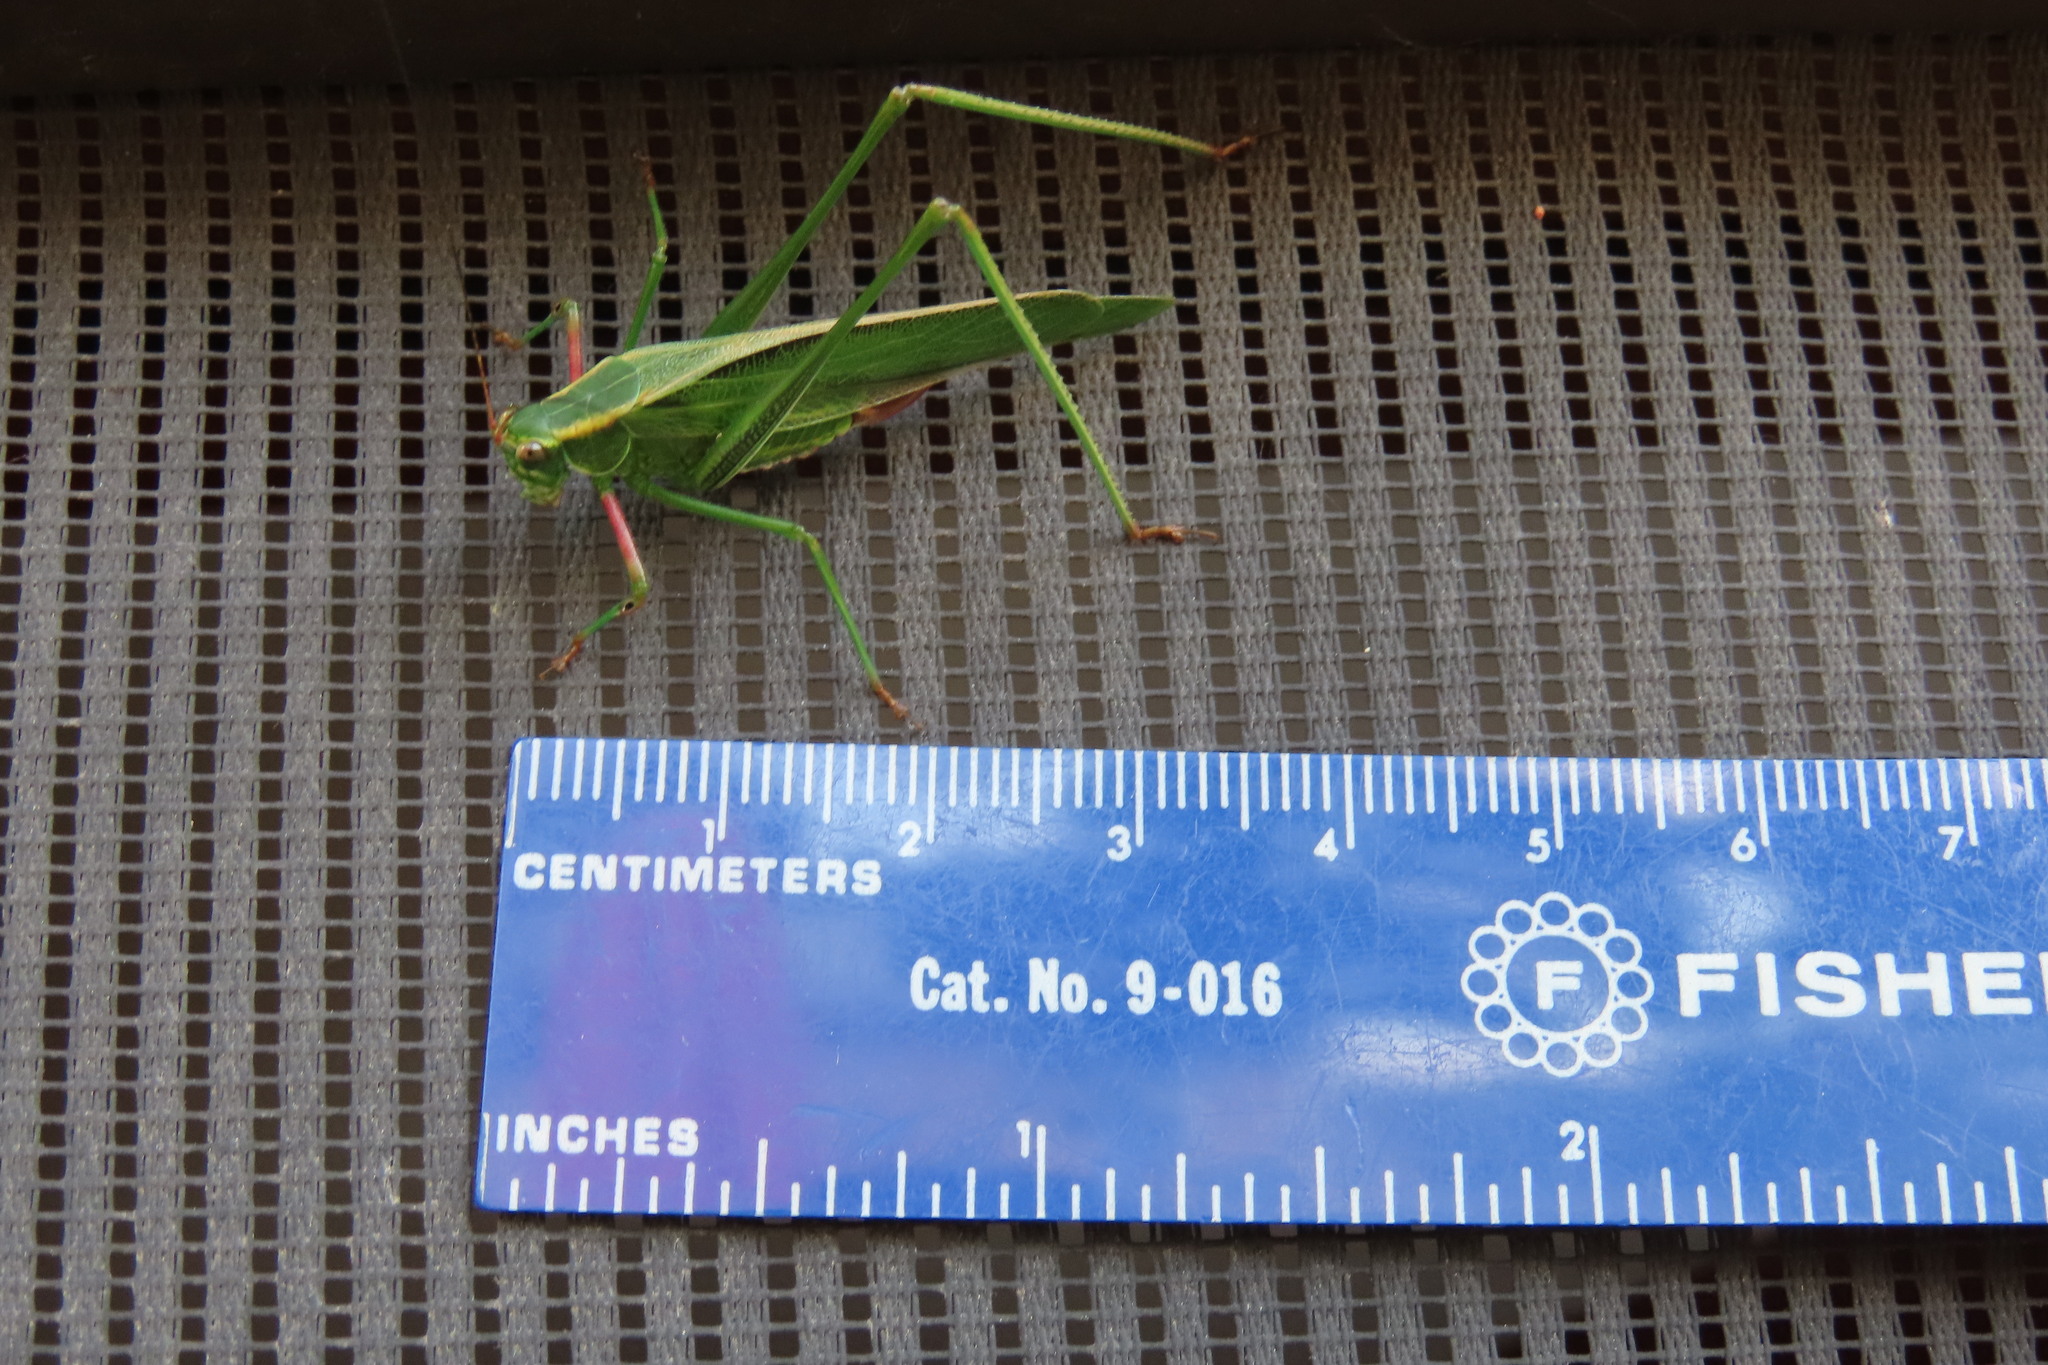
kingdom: Animalia
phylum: Arthropoda
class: Insecta
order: Orthoptera
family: Tettigoniidae
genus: Scudderia
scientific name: Scudderia fasciata
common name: Treetop bush katydid
